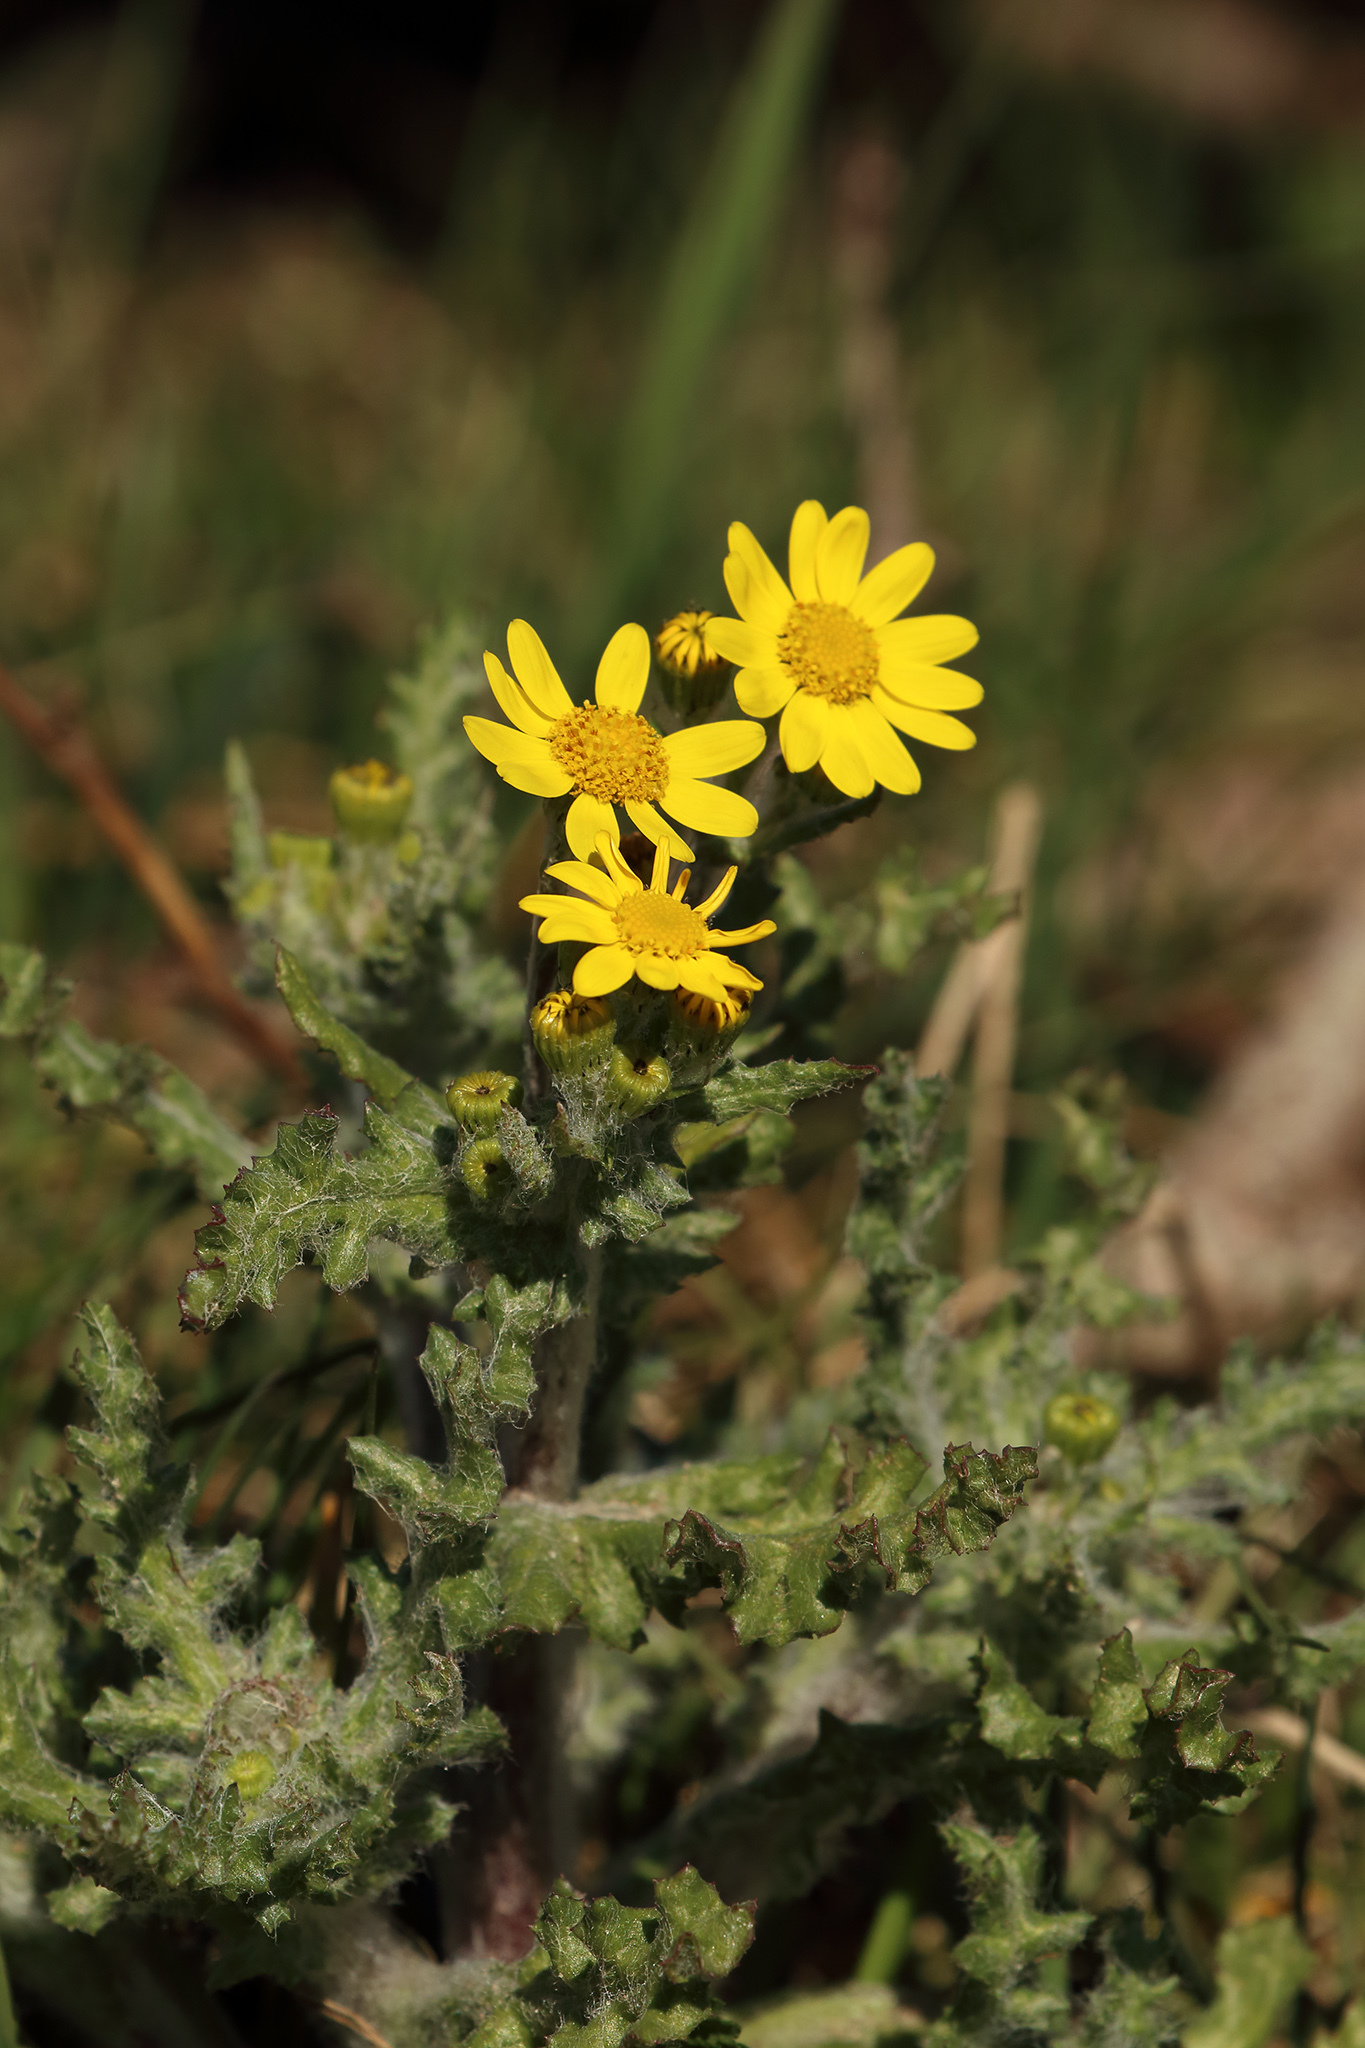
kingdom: Plantae
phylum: Tracheophyta
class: Magnoliopsida
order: Asterales
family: Asteraceae
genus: Senecio
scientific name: Senecio vernalis
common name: Eastern groundsel
